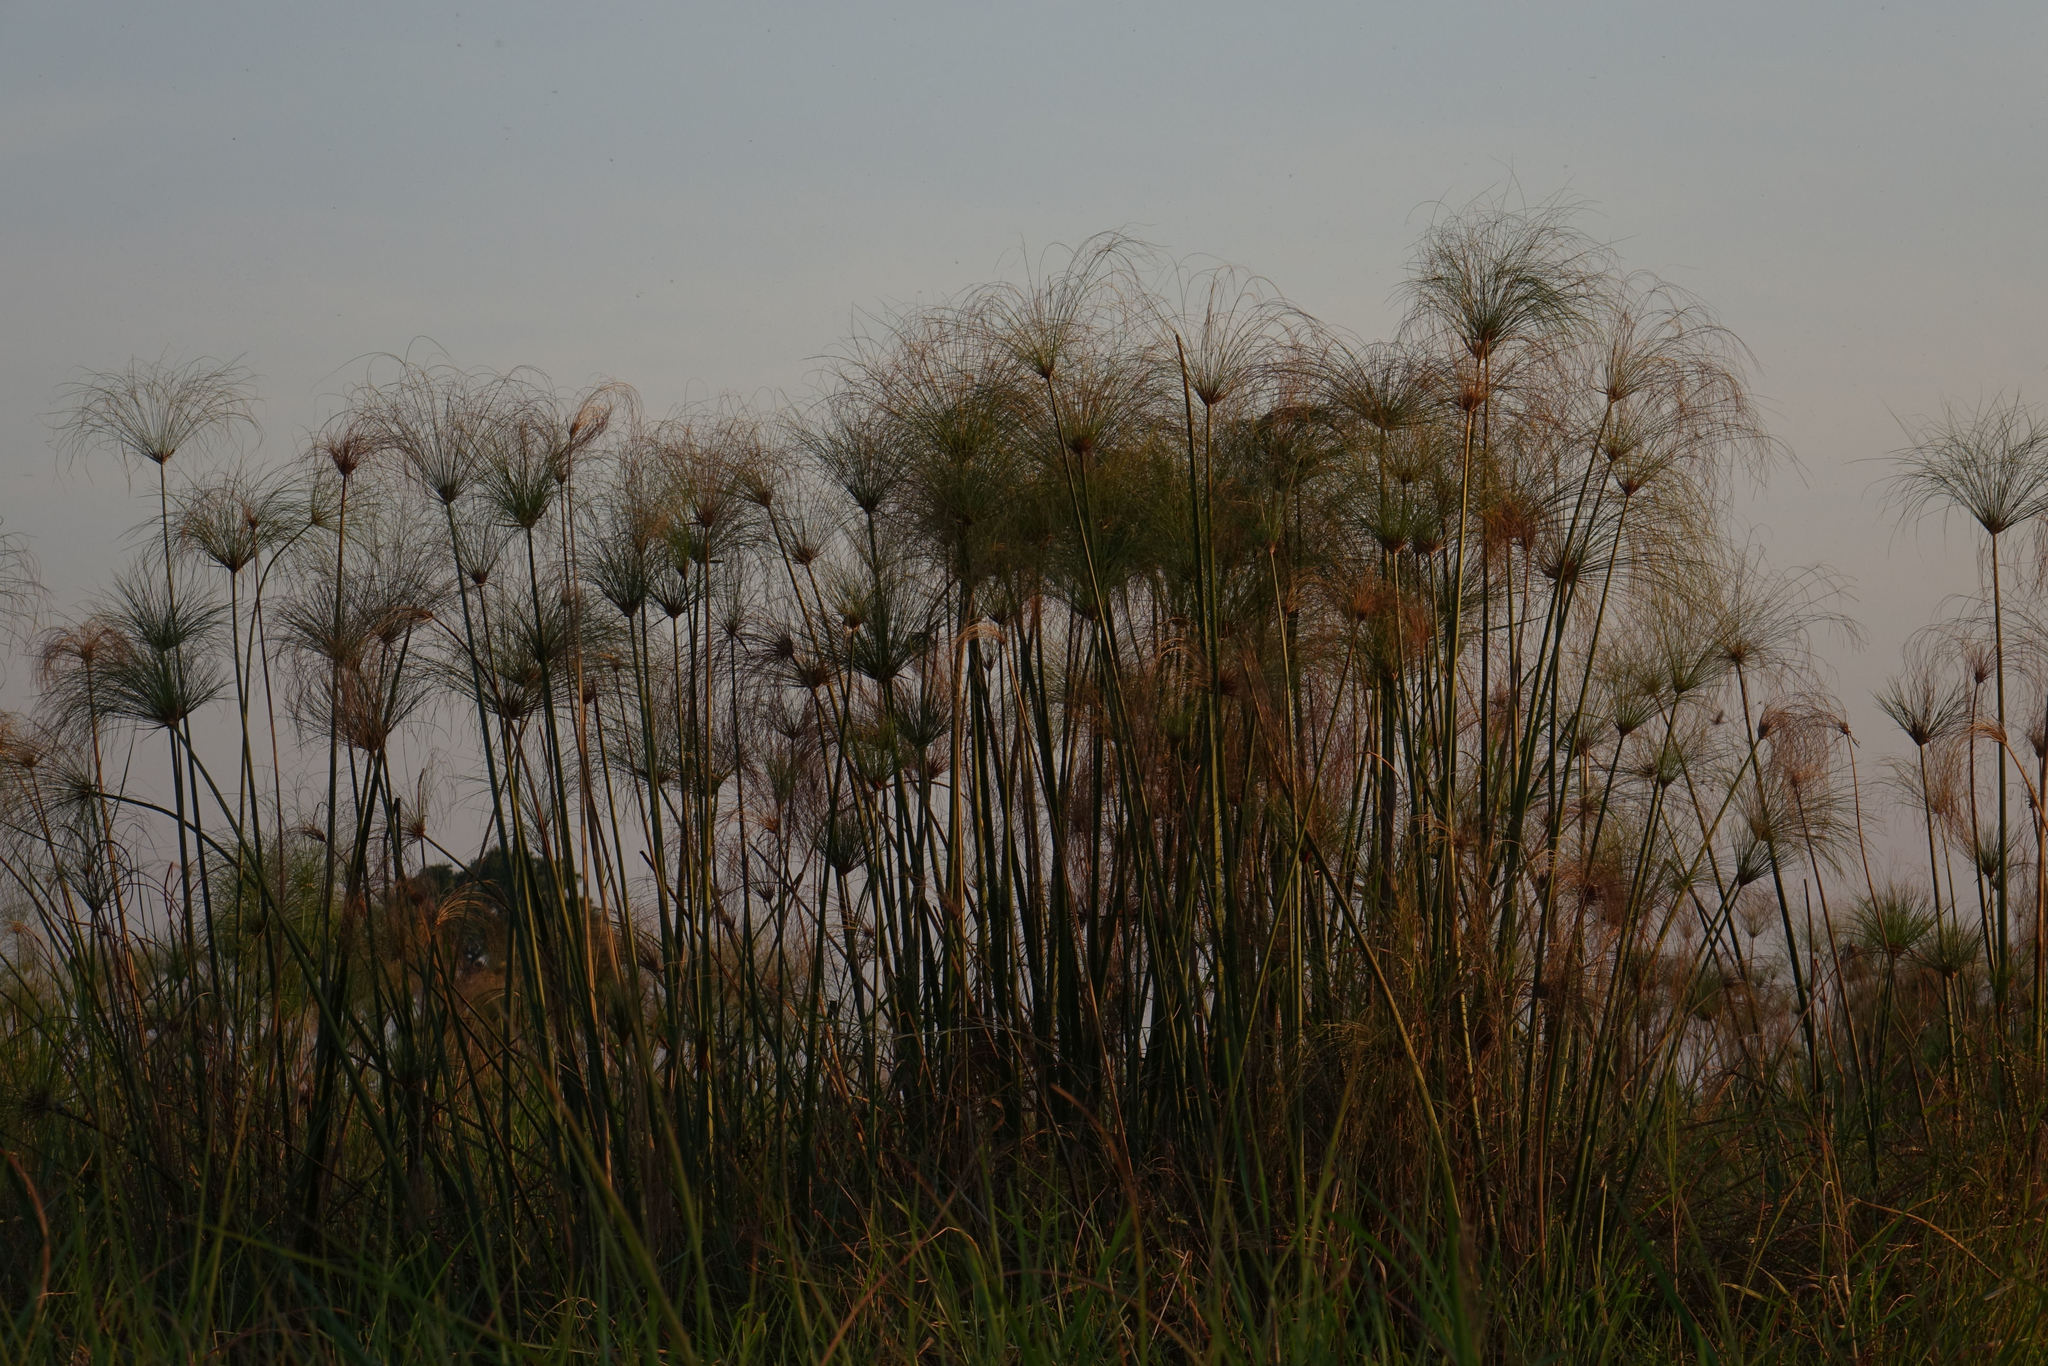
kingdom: Plantae
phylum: Tracheophyta
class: Liliopsida
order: Poales
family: Cyperaceae
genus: Cyperus
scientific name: Cyperus papyrus
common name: Papyrus
